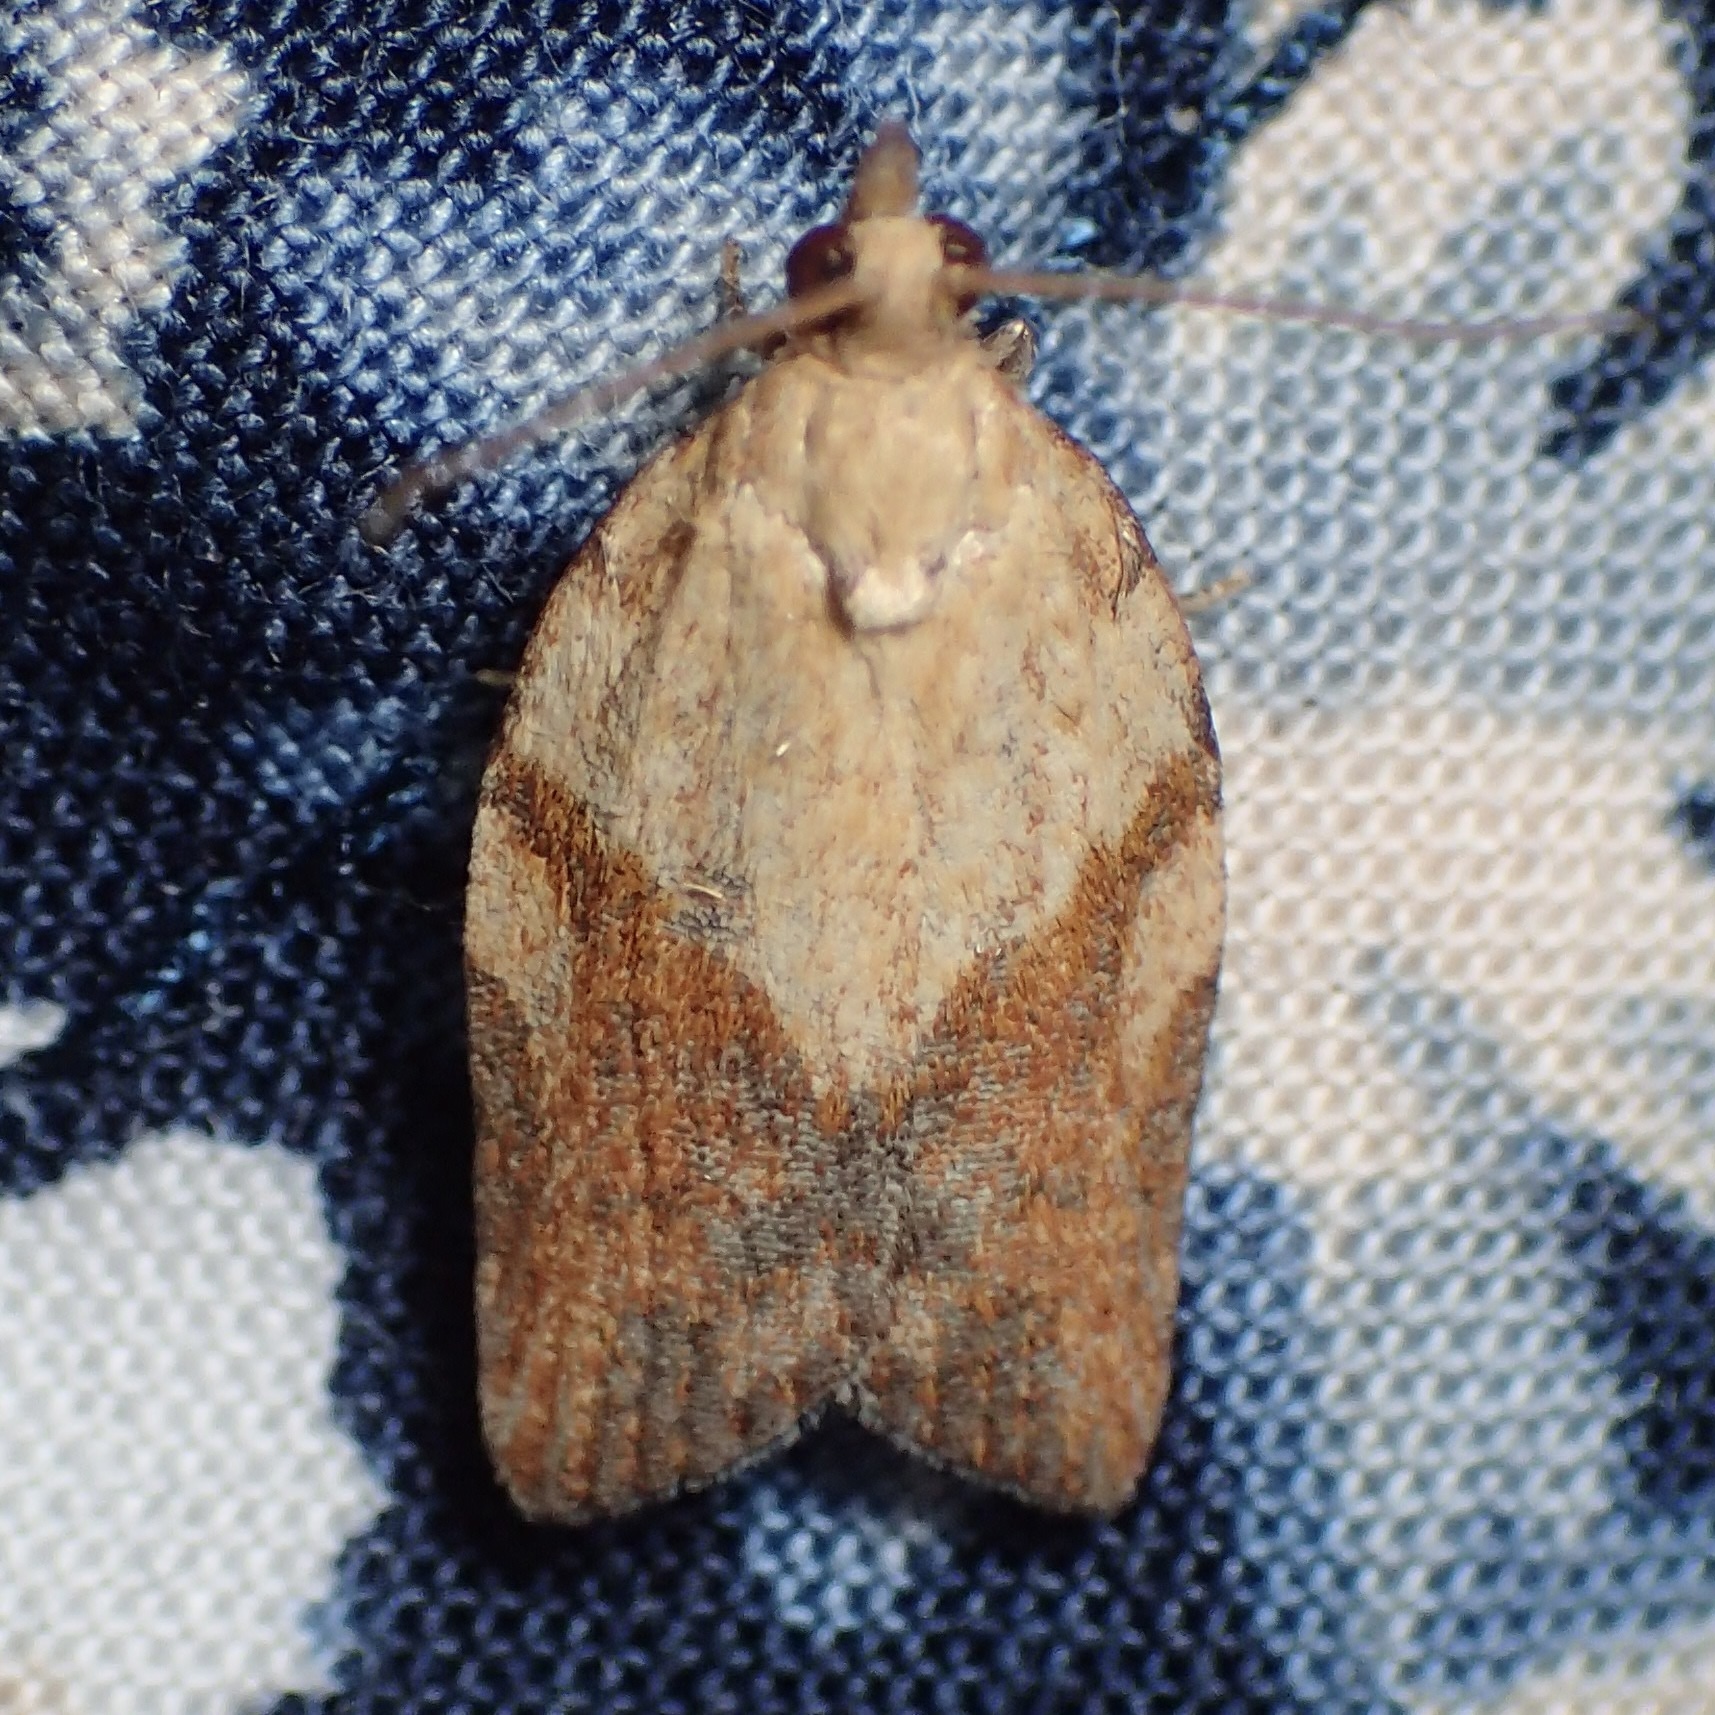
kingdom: Animalia
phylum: Arthropoda
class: Insecta
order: Lepidoptera
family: Tortricidae
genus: Epiphyas
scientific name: Epiphyas postvittana
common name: Light brown apple moth
